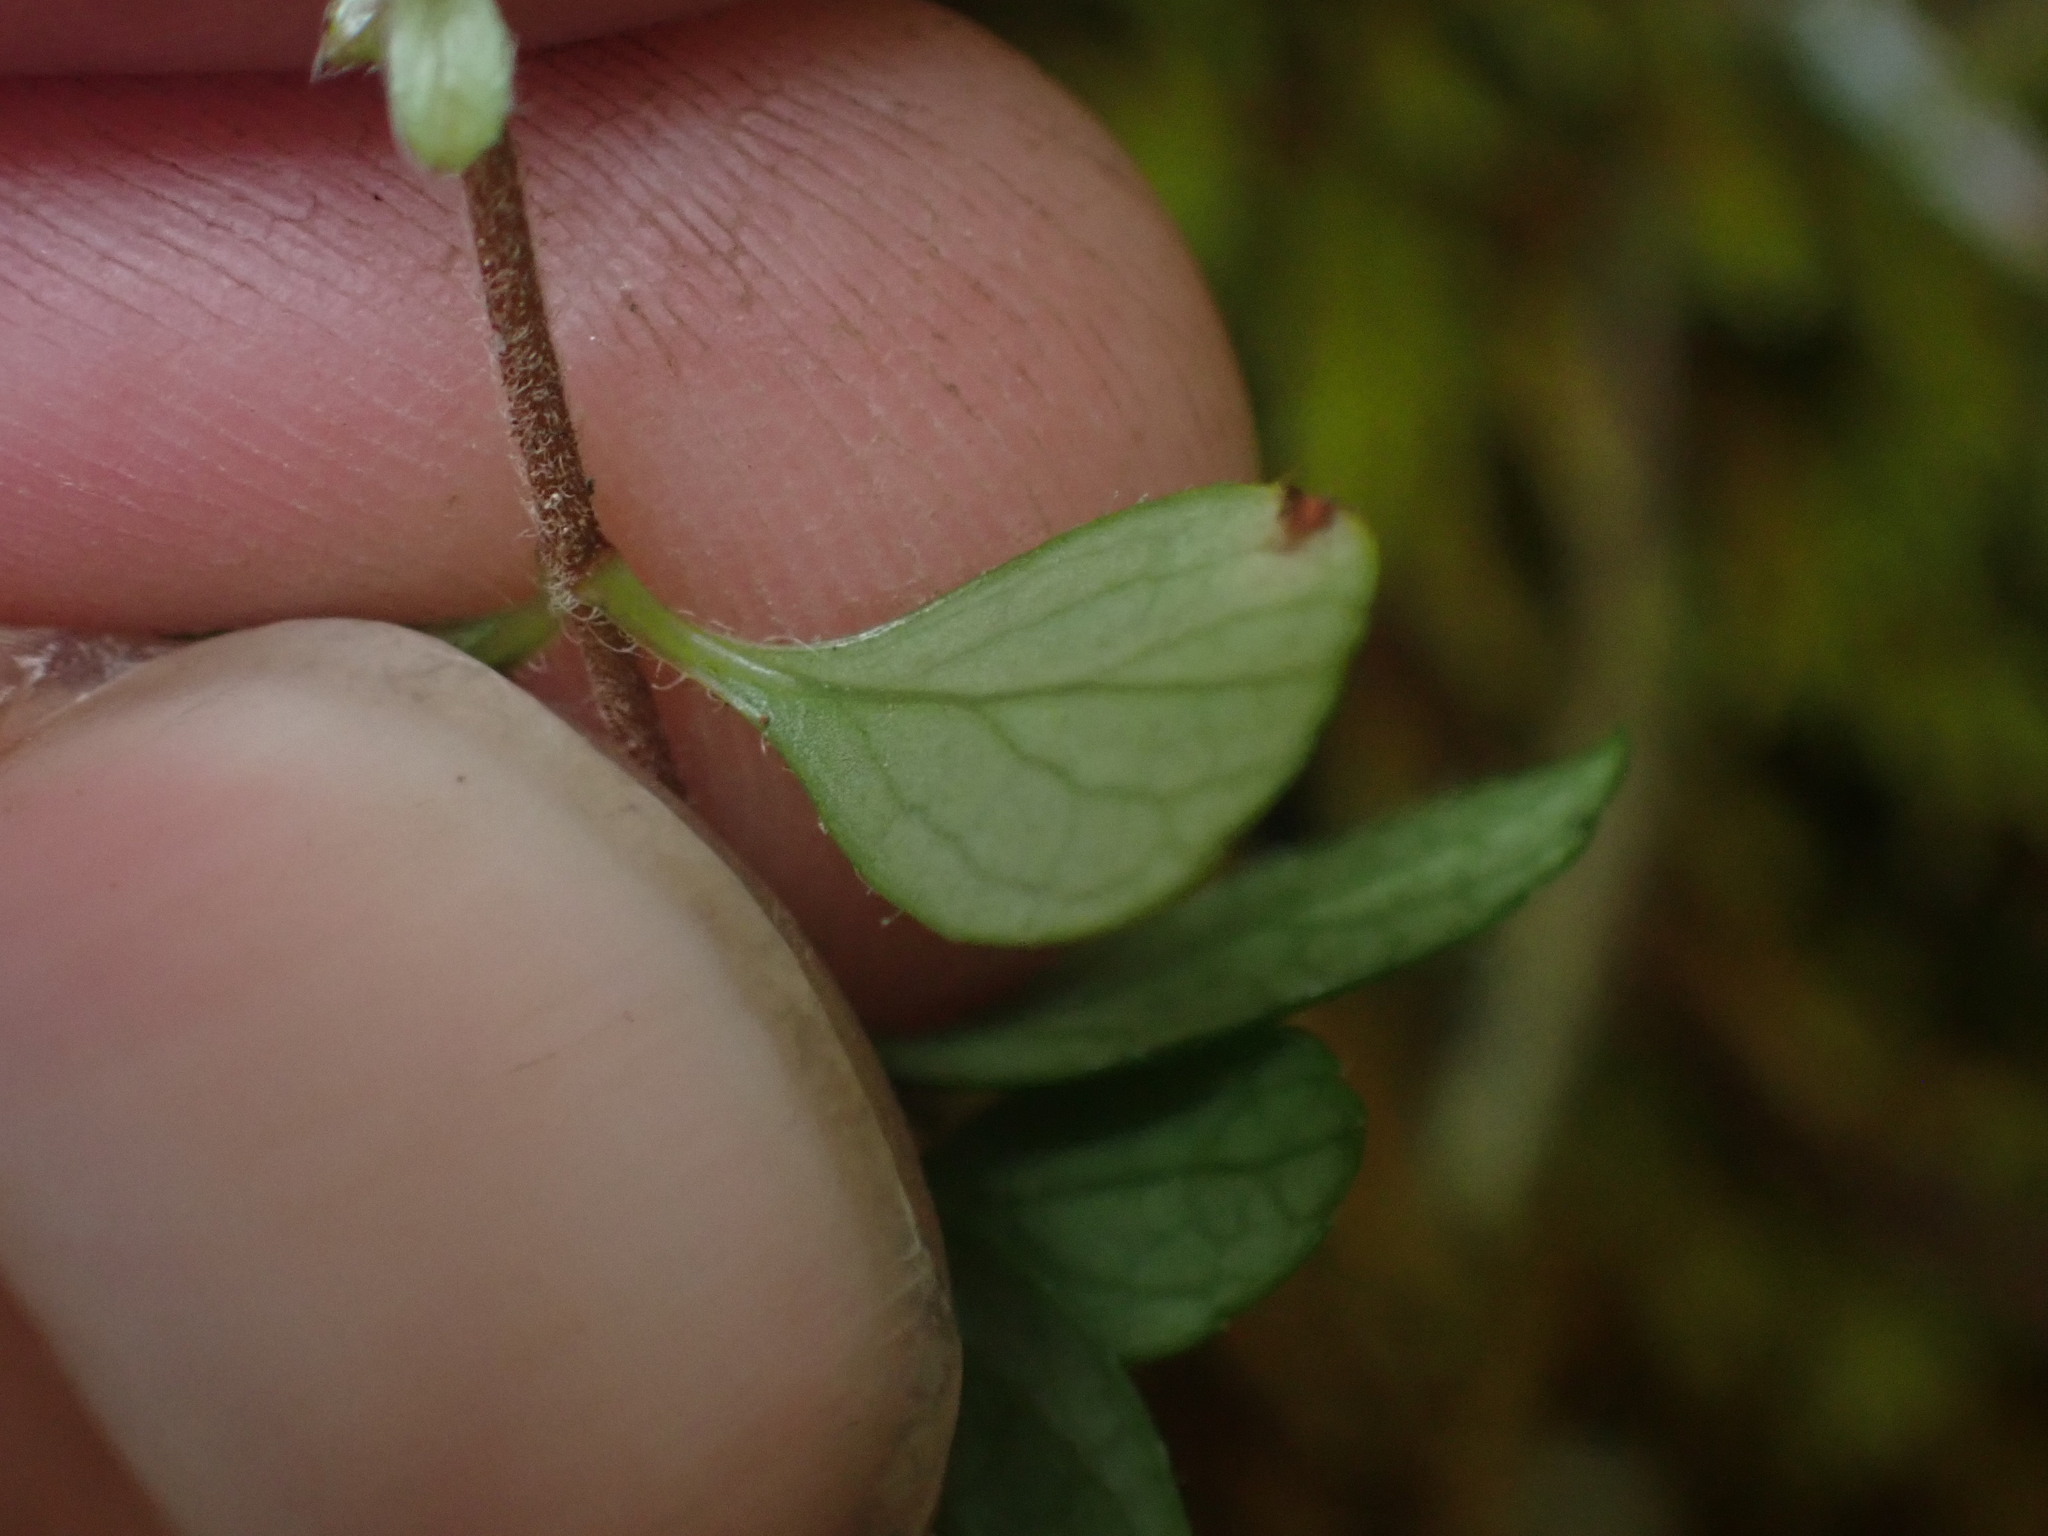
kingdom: Plantae
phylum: Tracheophyta
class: Magnoliopsida
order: Dipsacales
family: Caprifoliaceae
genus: Linnaea
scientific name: Linnaea borealis
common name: Twinflower
